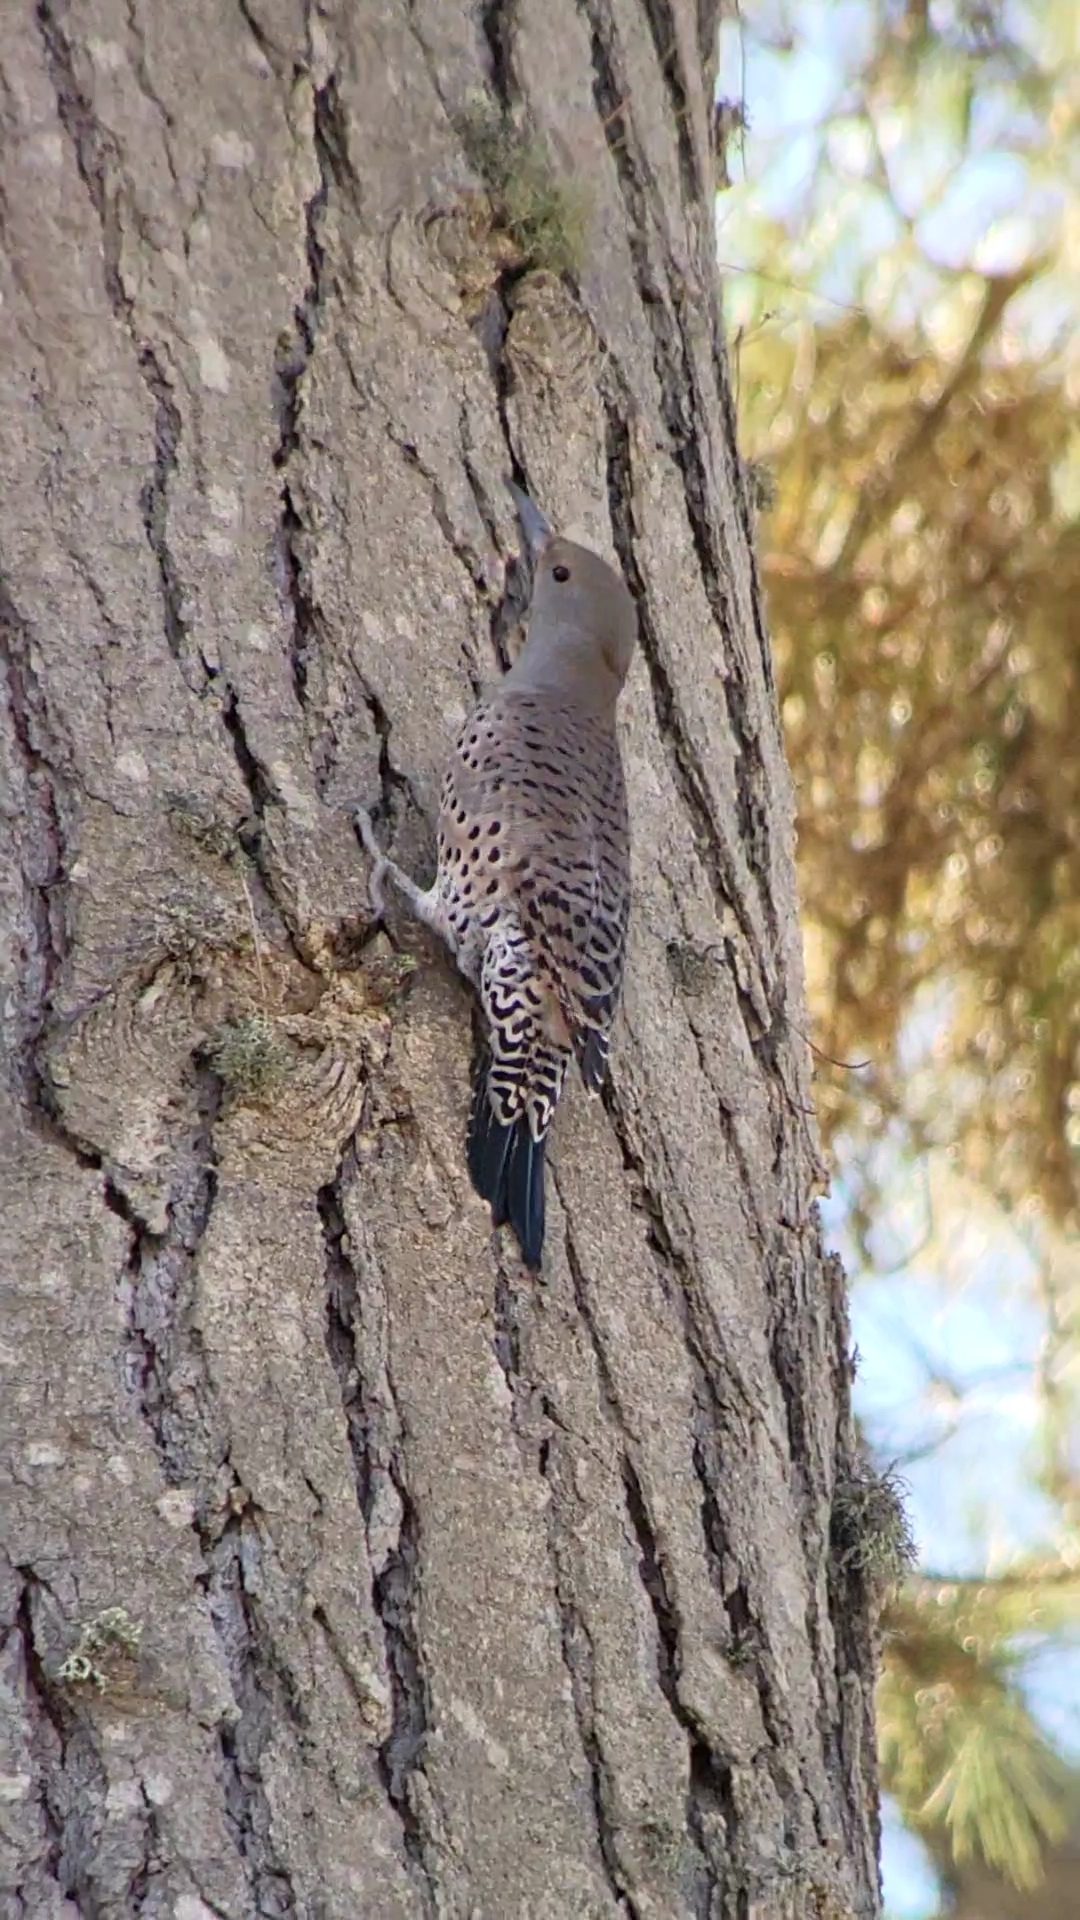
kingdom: Animalia
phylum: Chordata
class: Aves
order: Piciformes
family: Picidae
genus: Colaptes
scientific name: Colaptes auratus
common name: Northern flicker
